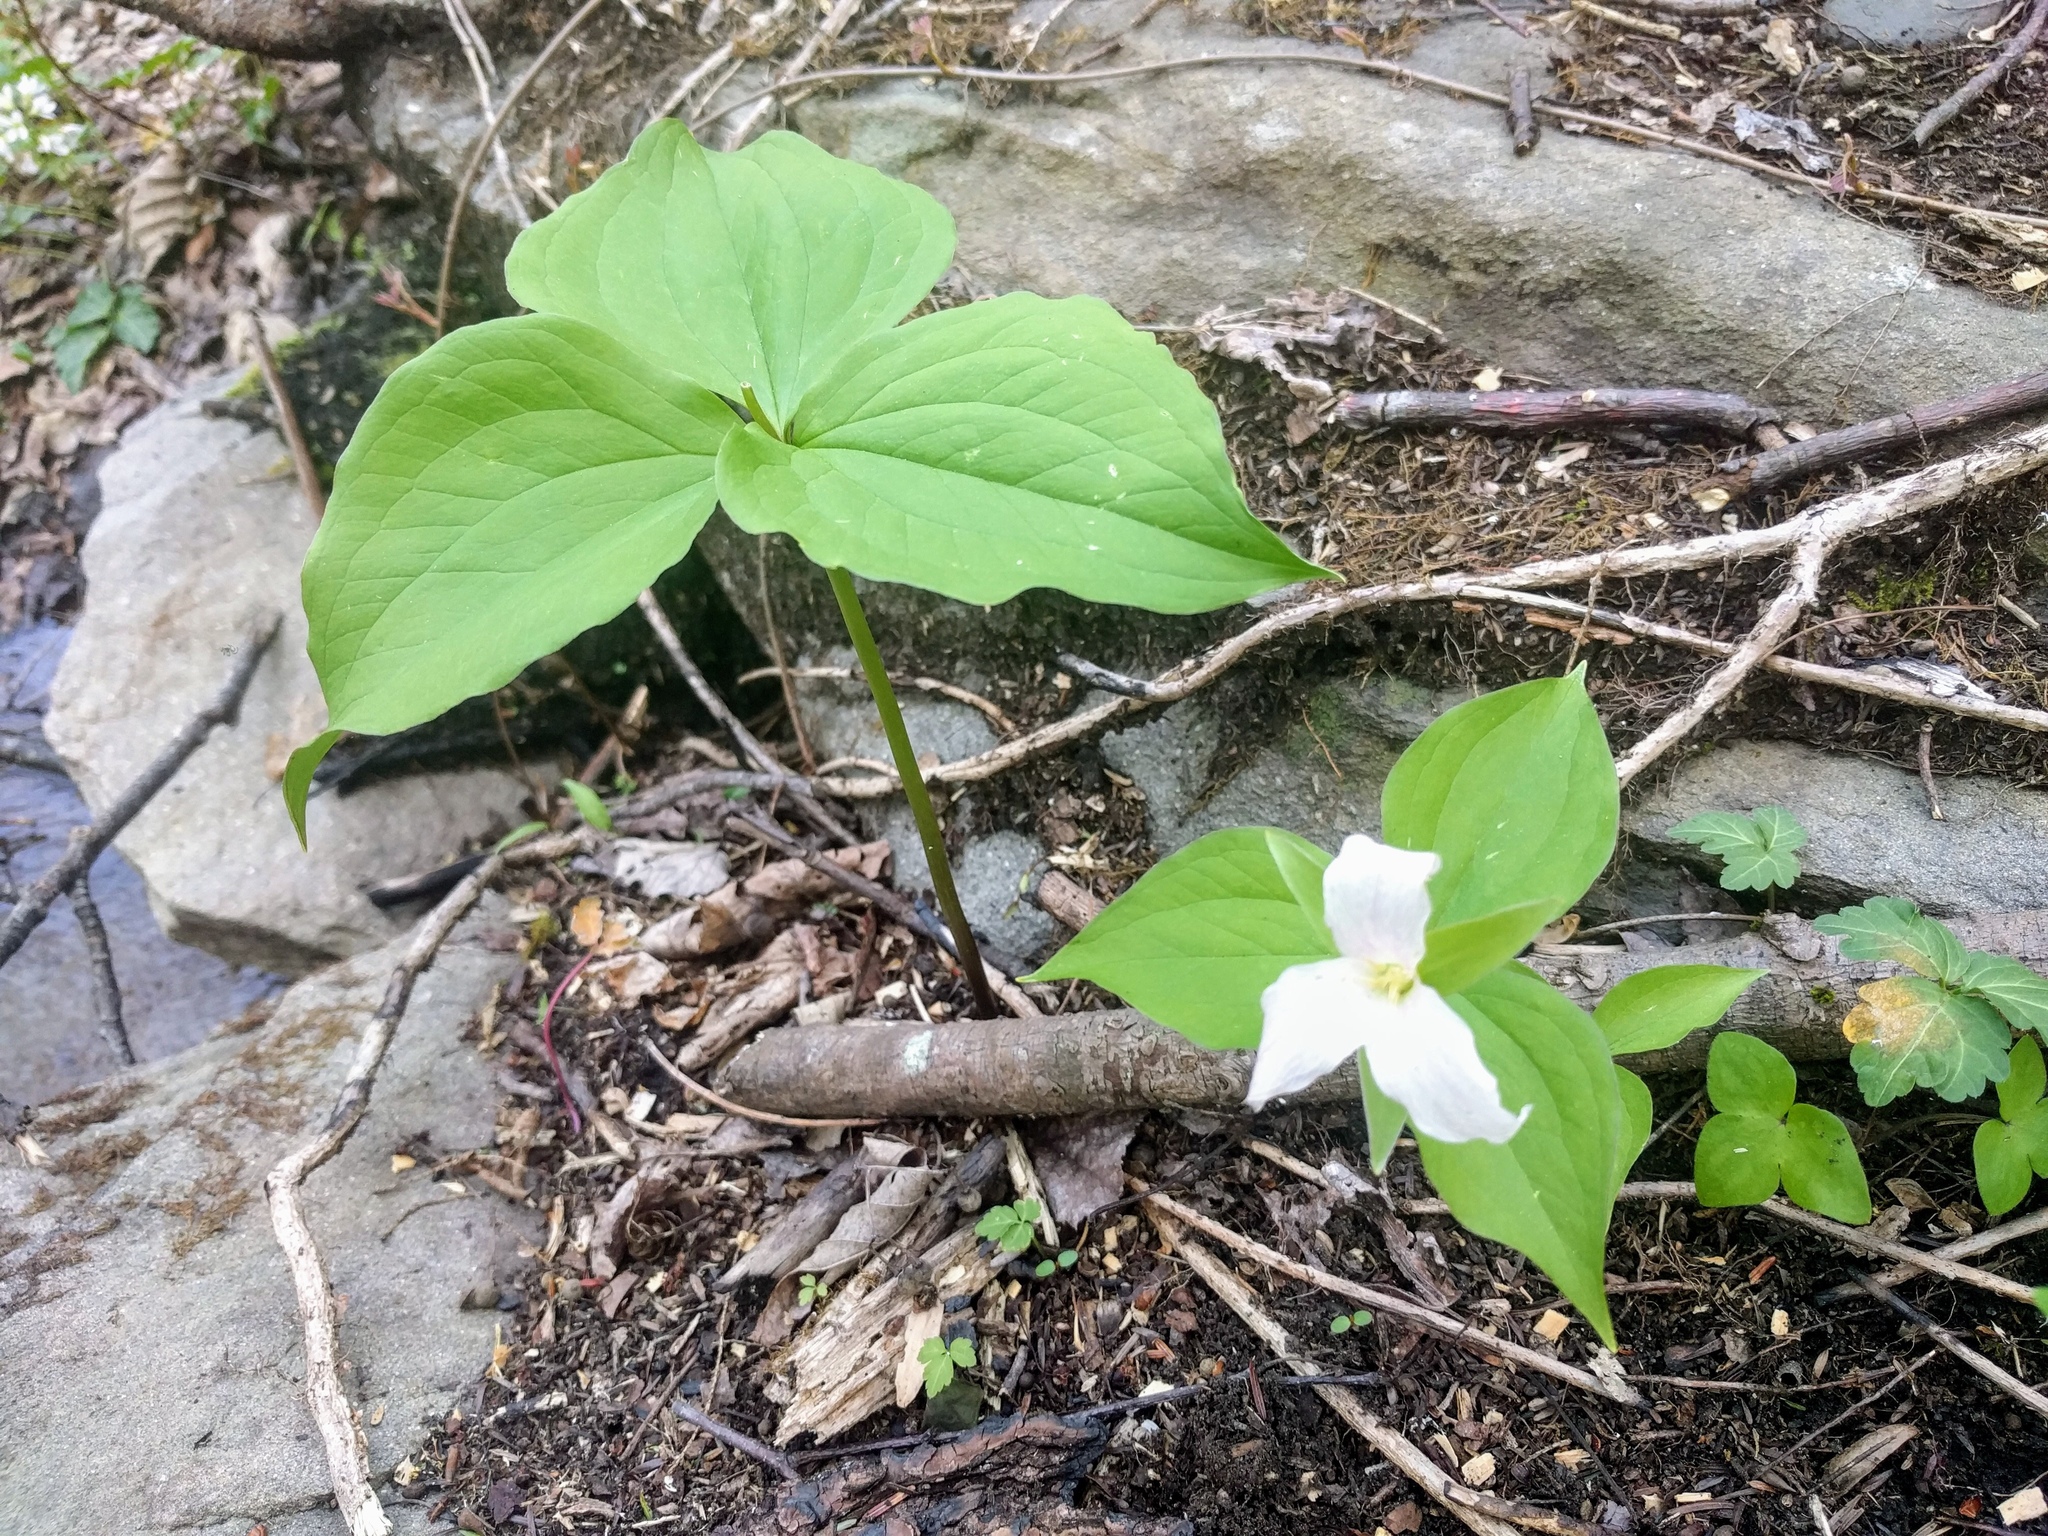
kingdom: Plantae
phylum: Tracheophyta
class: Liliopsida
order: Liliales
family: Melanthiaceae
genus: Trillium
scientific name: Trillium grandiflorum
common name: Great white trillium
